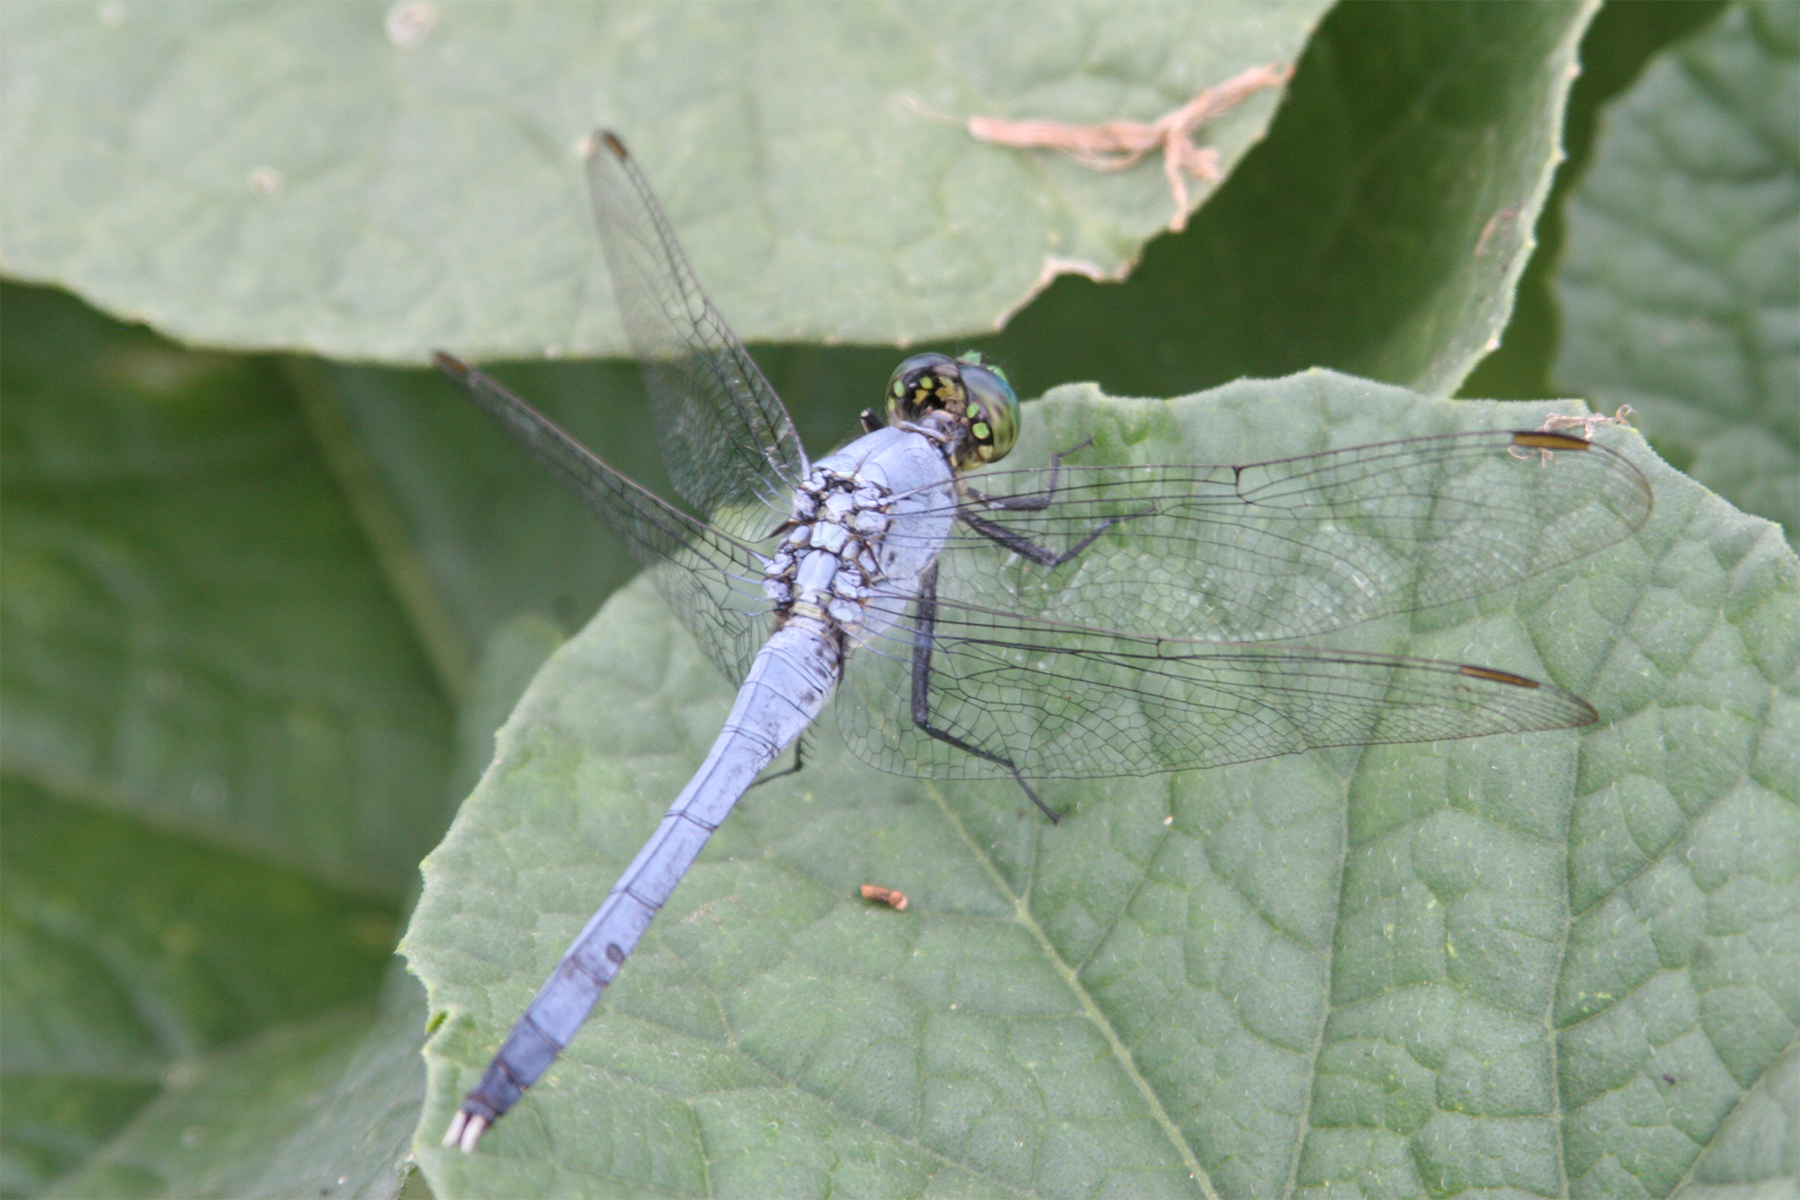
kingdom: Animalia
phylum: Arthropoda
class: Insecta
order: Odonata
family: Libellulidae
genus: Erythemis
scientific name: Erythemis simplicicollis
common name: Eastern pondhawk
